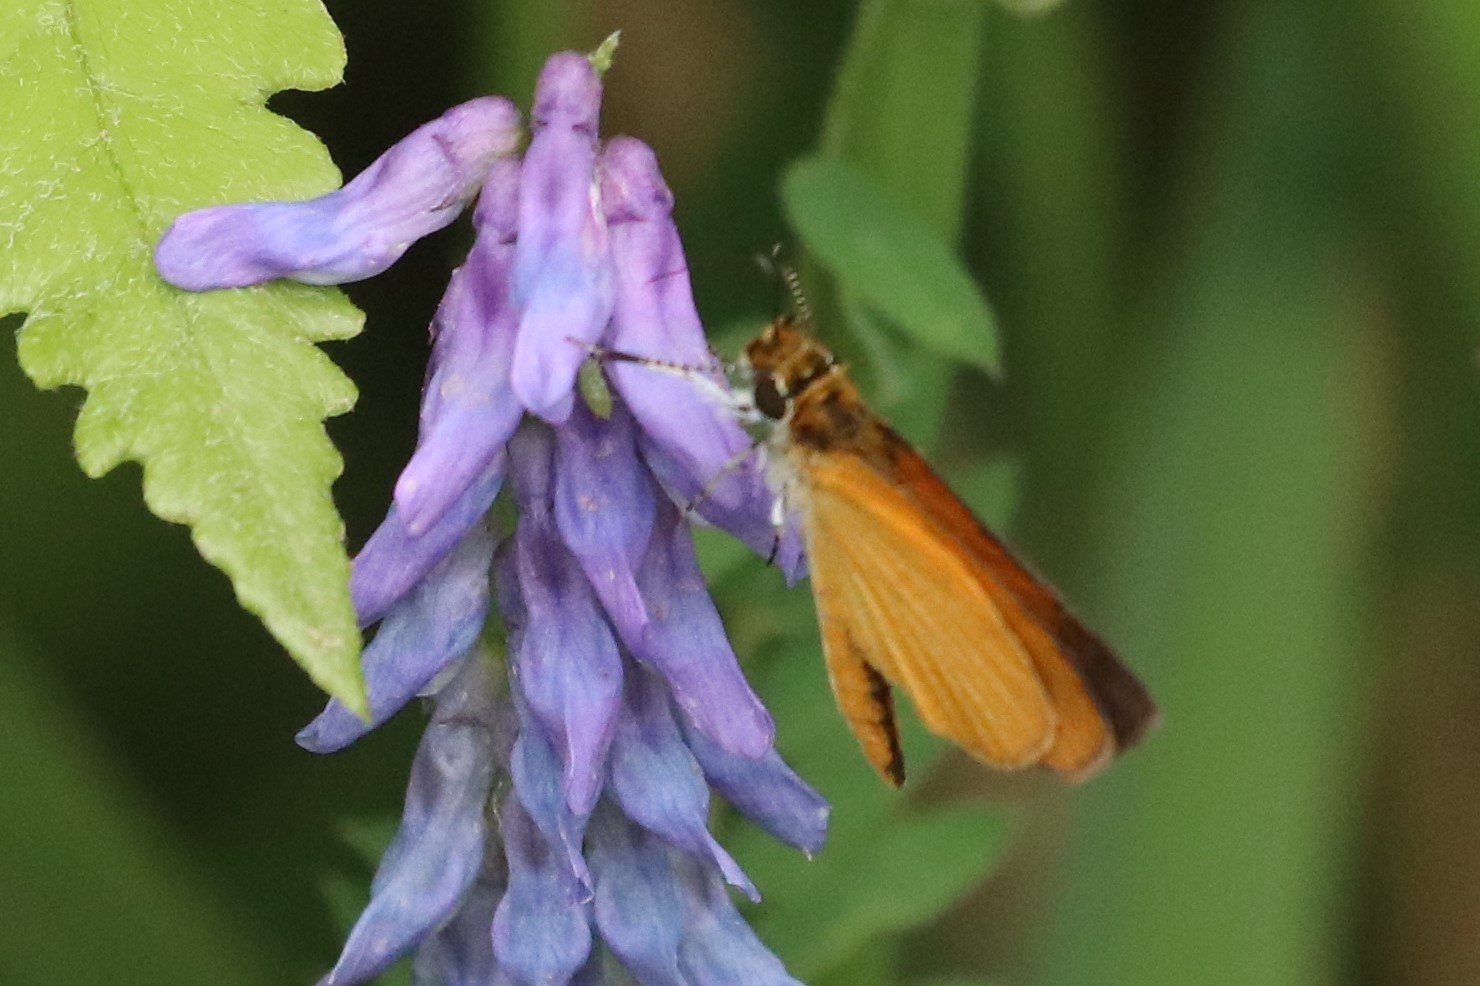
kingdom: Animalia
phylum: Arthropoda
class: Insecta
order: Lepidoptera
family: Hesperiidae
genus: Ancyloxypha
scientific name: Ancyloxypha numitor
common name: Least skipper
